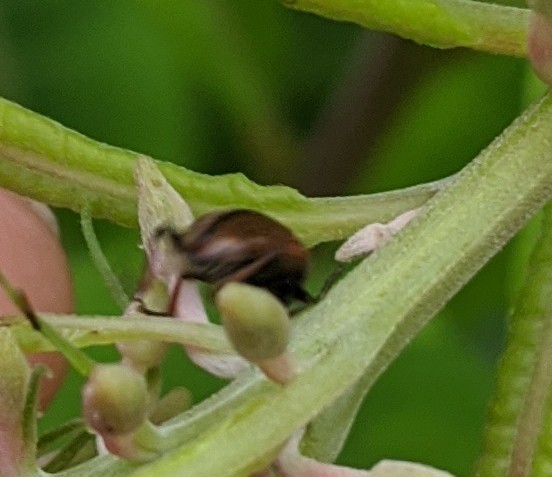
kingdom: Animalia
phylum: Arthropoda
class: Insecta
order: Coleoptera
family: Chrysomelidae
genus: Bromius
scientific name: Bromius obscurus
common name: Western grape rootworm
